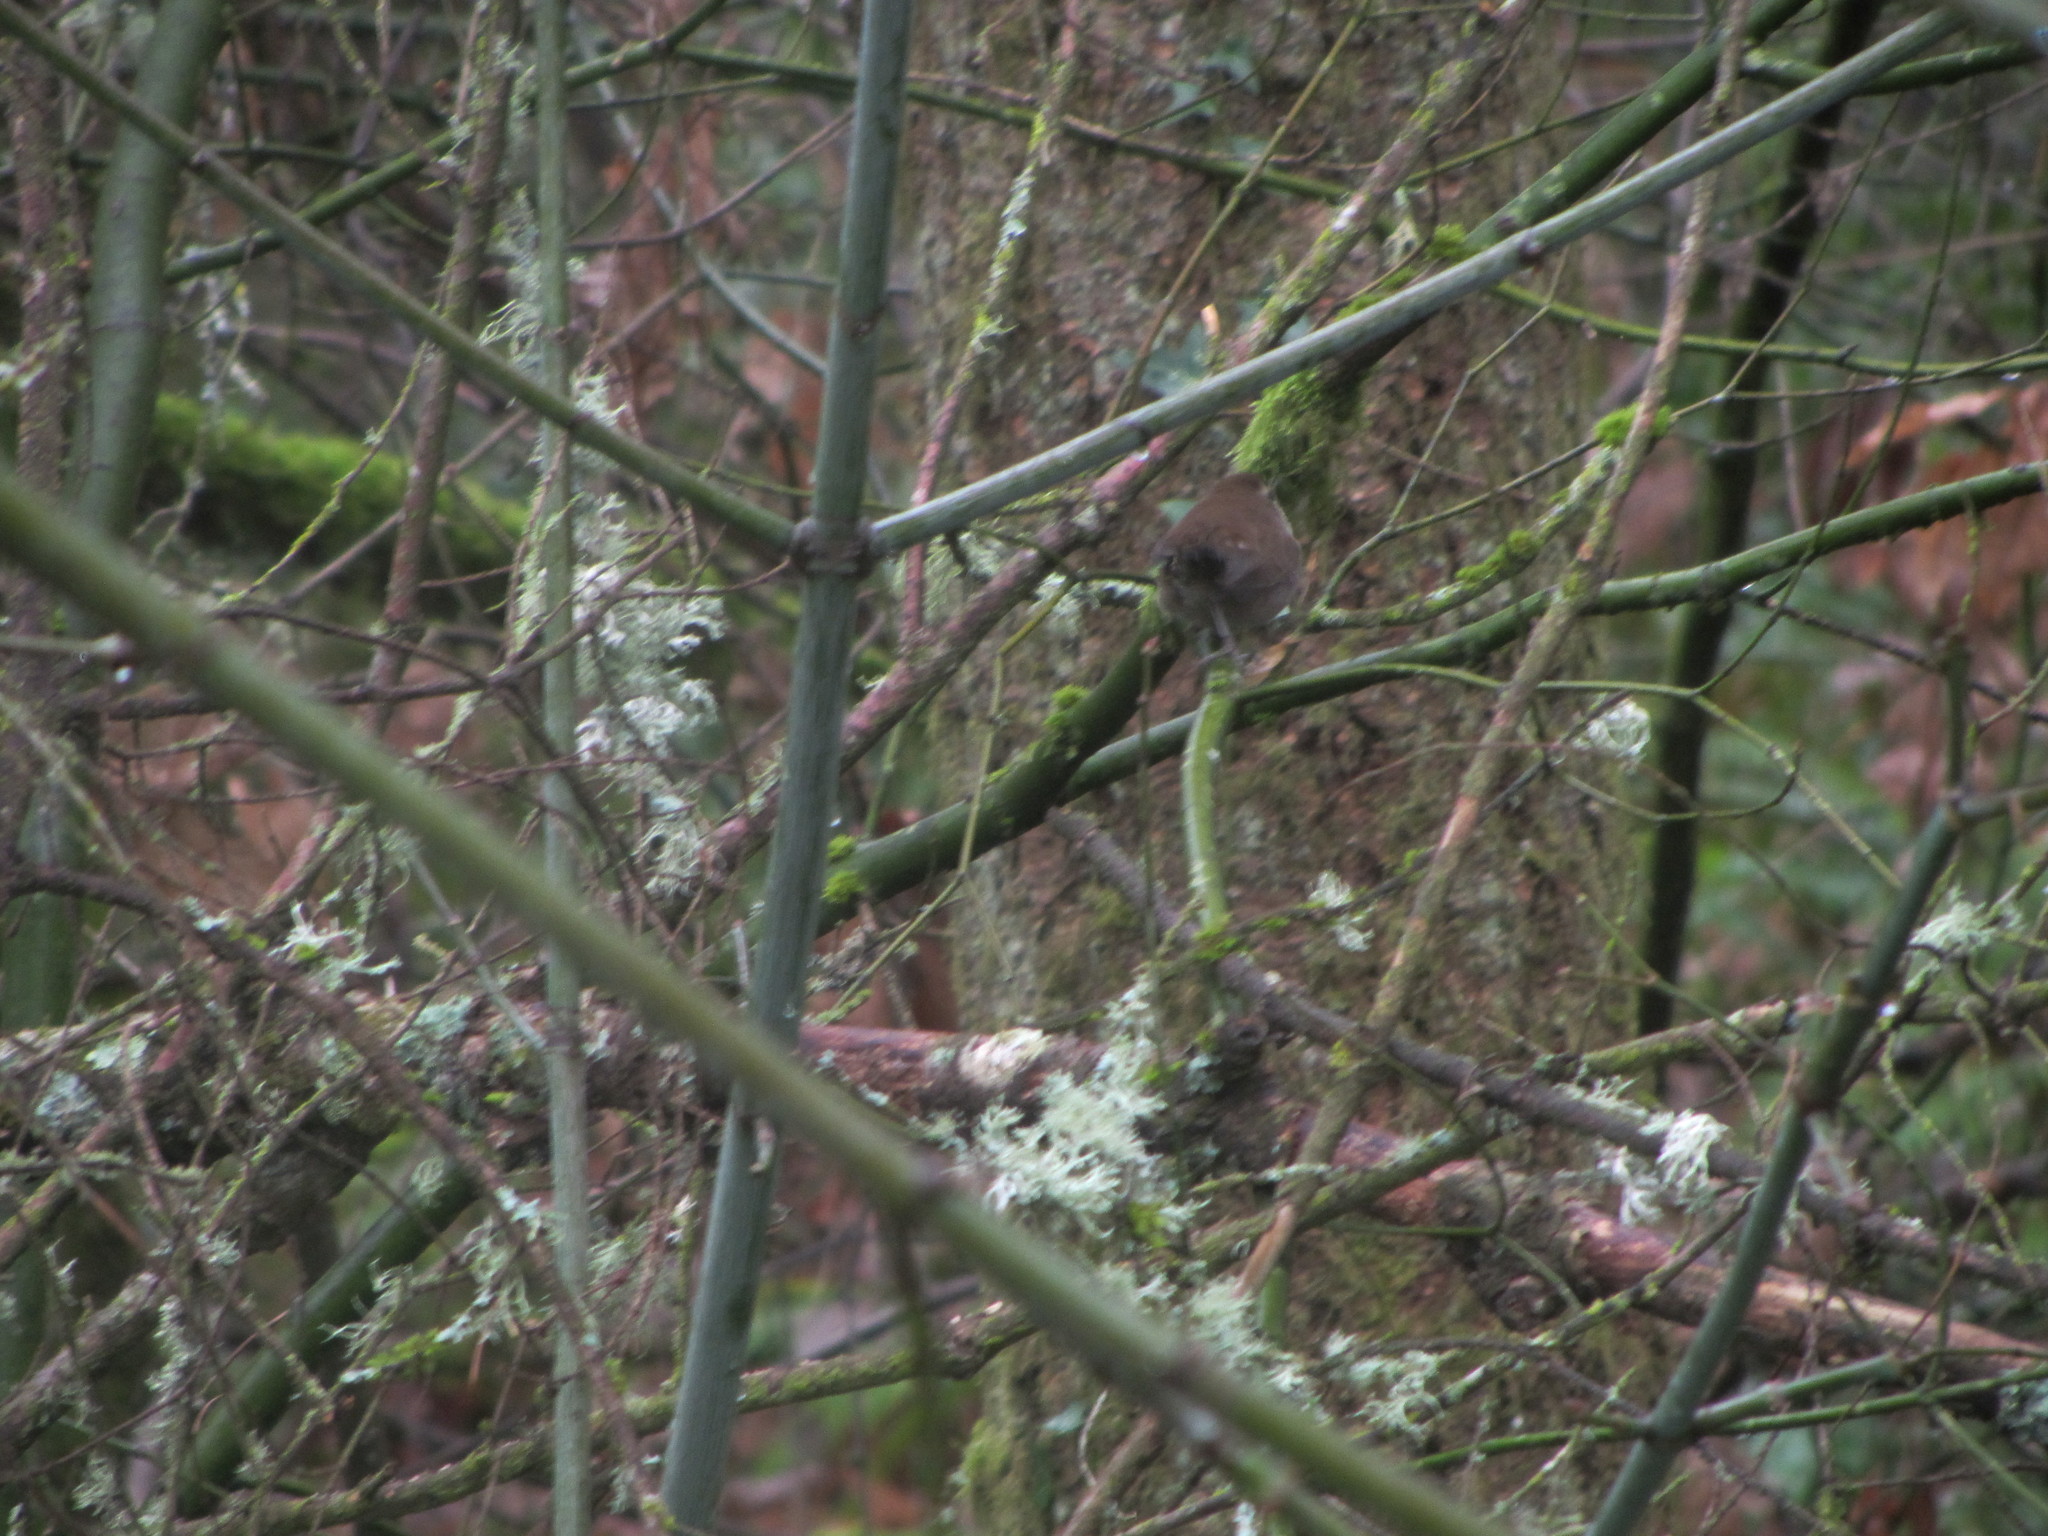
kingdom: Animalia
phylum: Chordata
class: Aves
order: Passeriformes
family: Troglodytidae
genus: Thryomanes
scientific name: Thryomanes bewickii
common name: Bewick's wren
